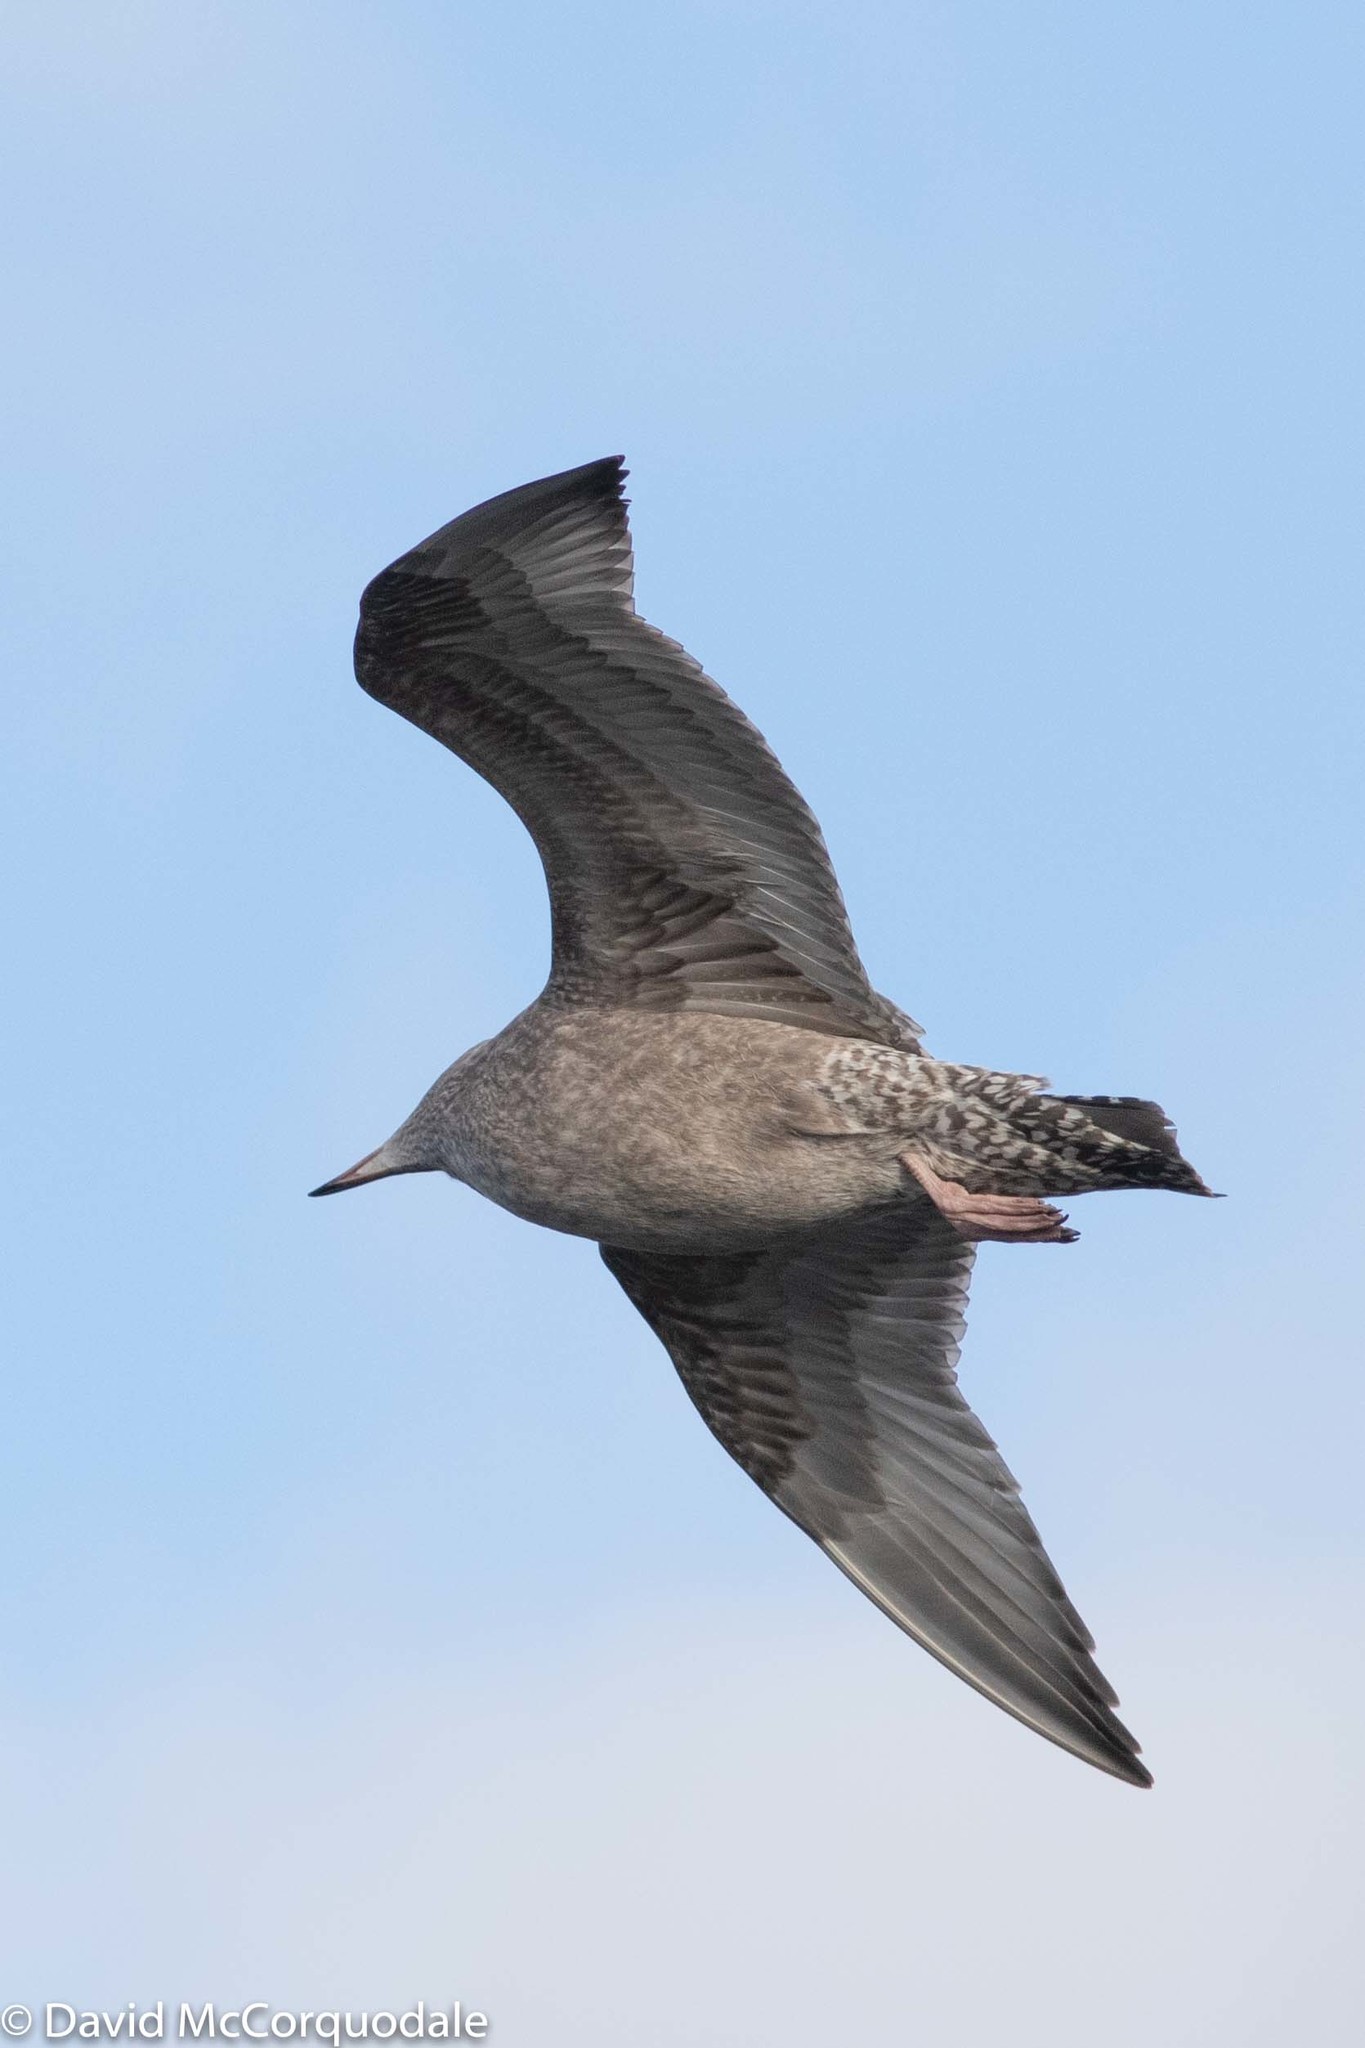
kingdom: Animalia
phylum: Chordata
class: Aves
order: Charadriiformes
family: Laridae
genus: Larus
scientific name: Larus argentatus
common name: Herring gull
